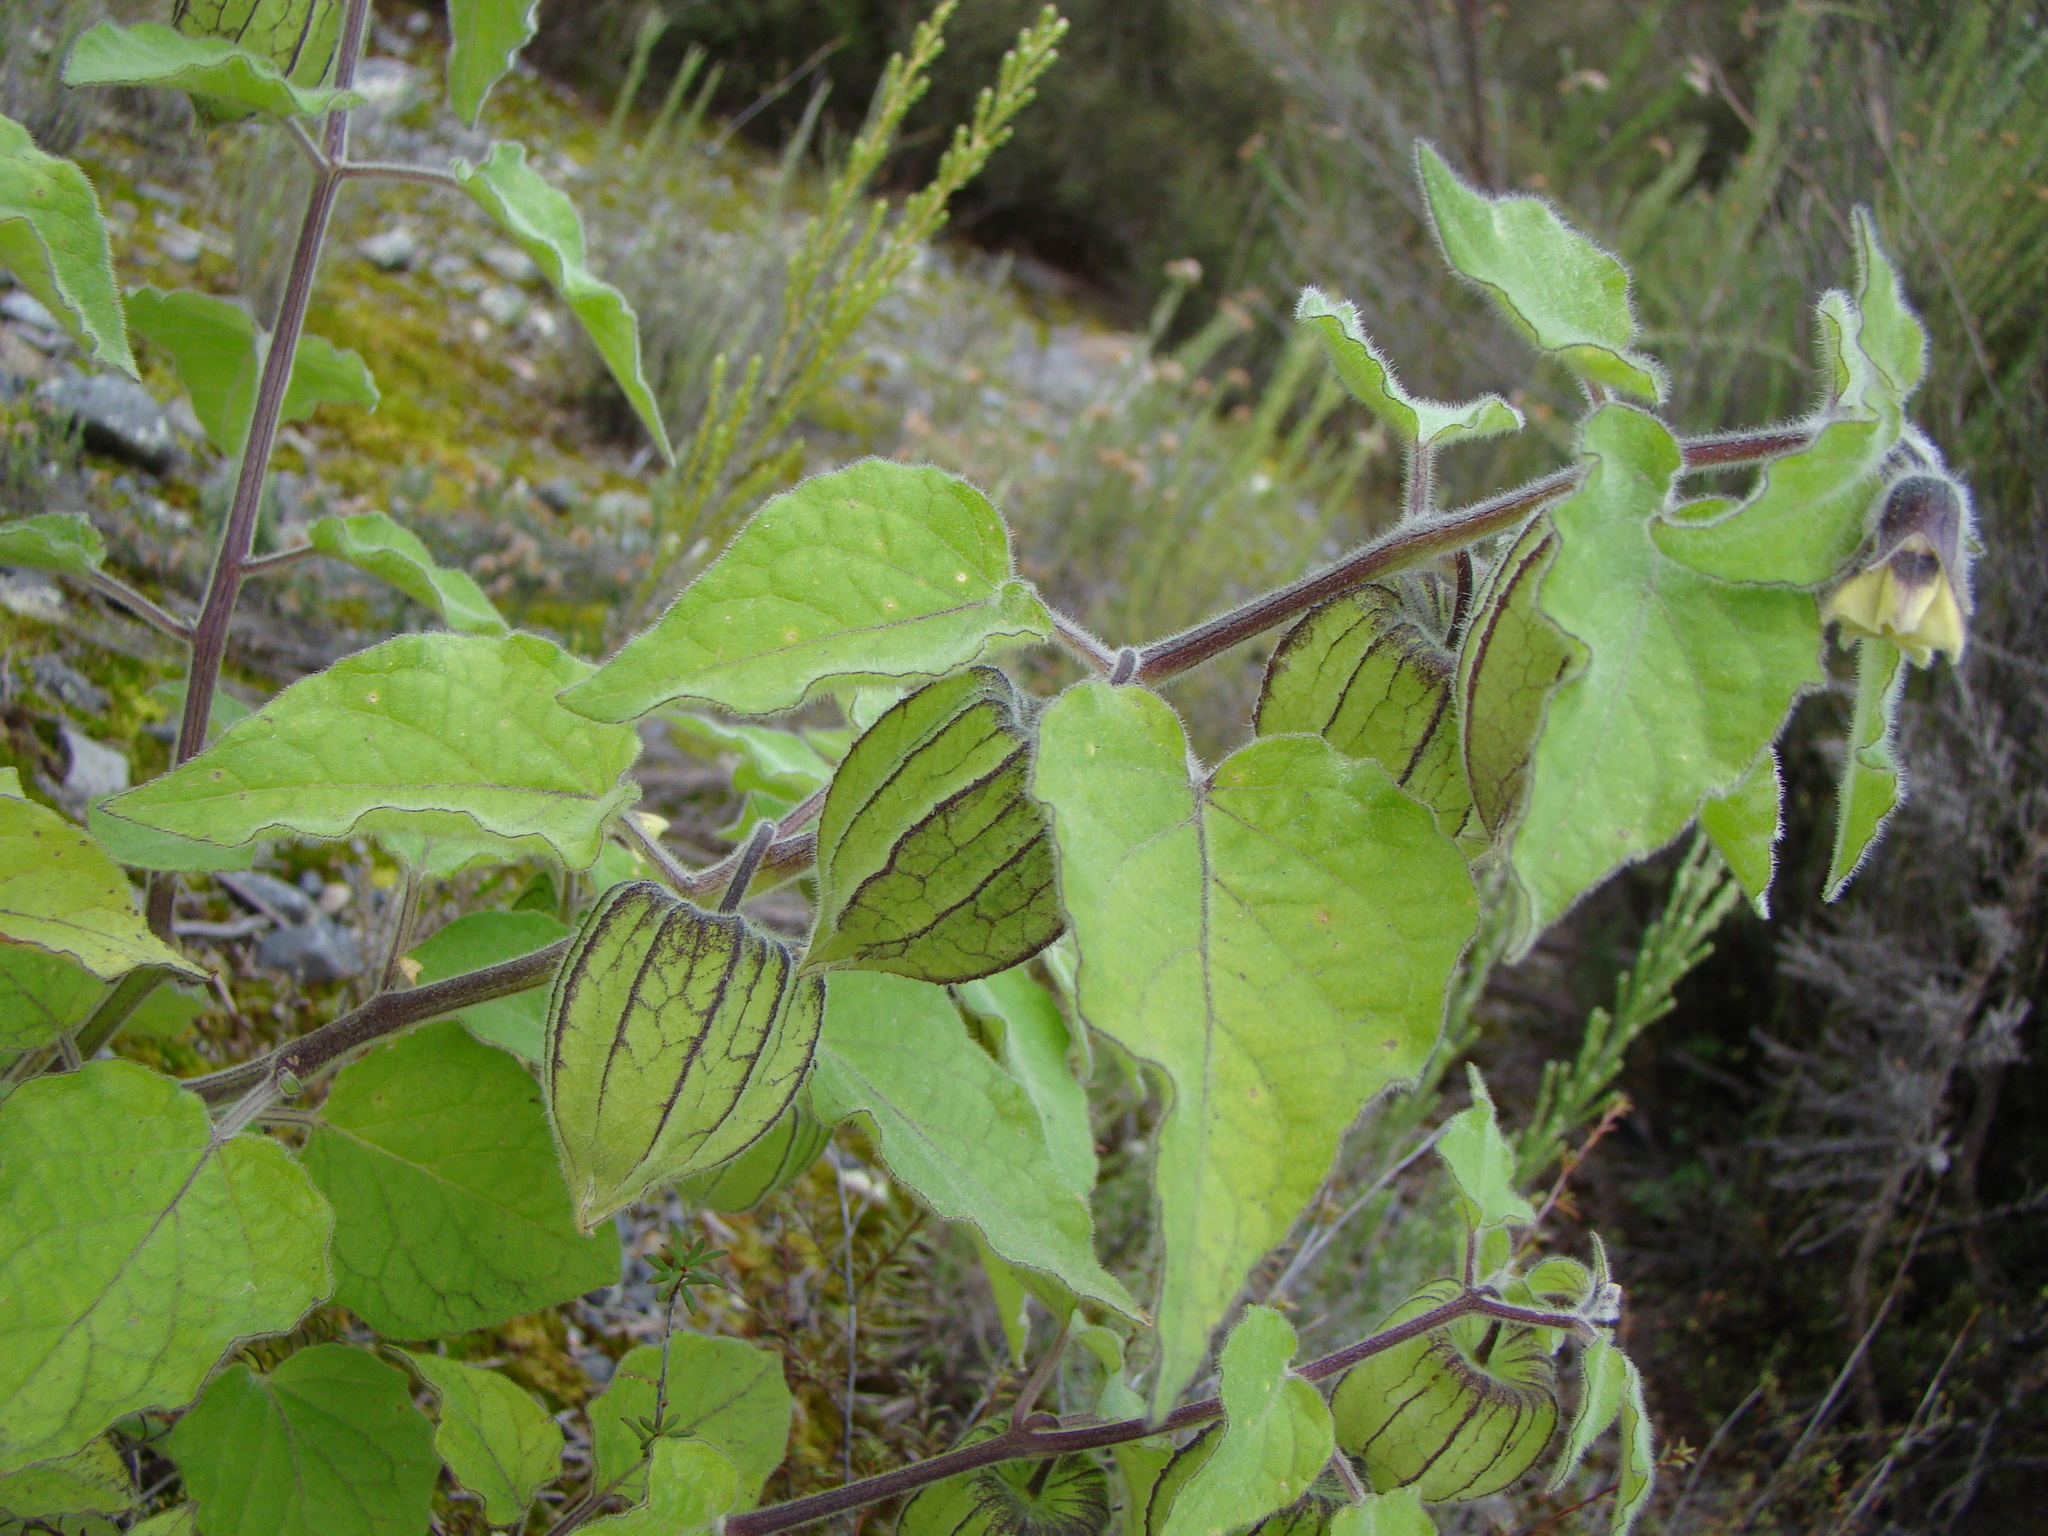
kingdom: Plantae
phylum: Tracheophyta
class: Magnoliopsida
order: Solanales
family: Solanaceae
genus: Physalis
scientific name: Physalis peruviana
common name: Cape-gooseberry
